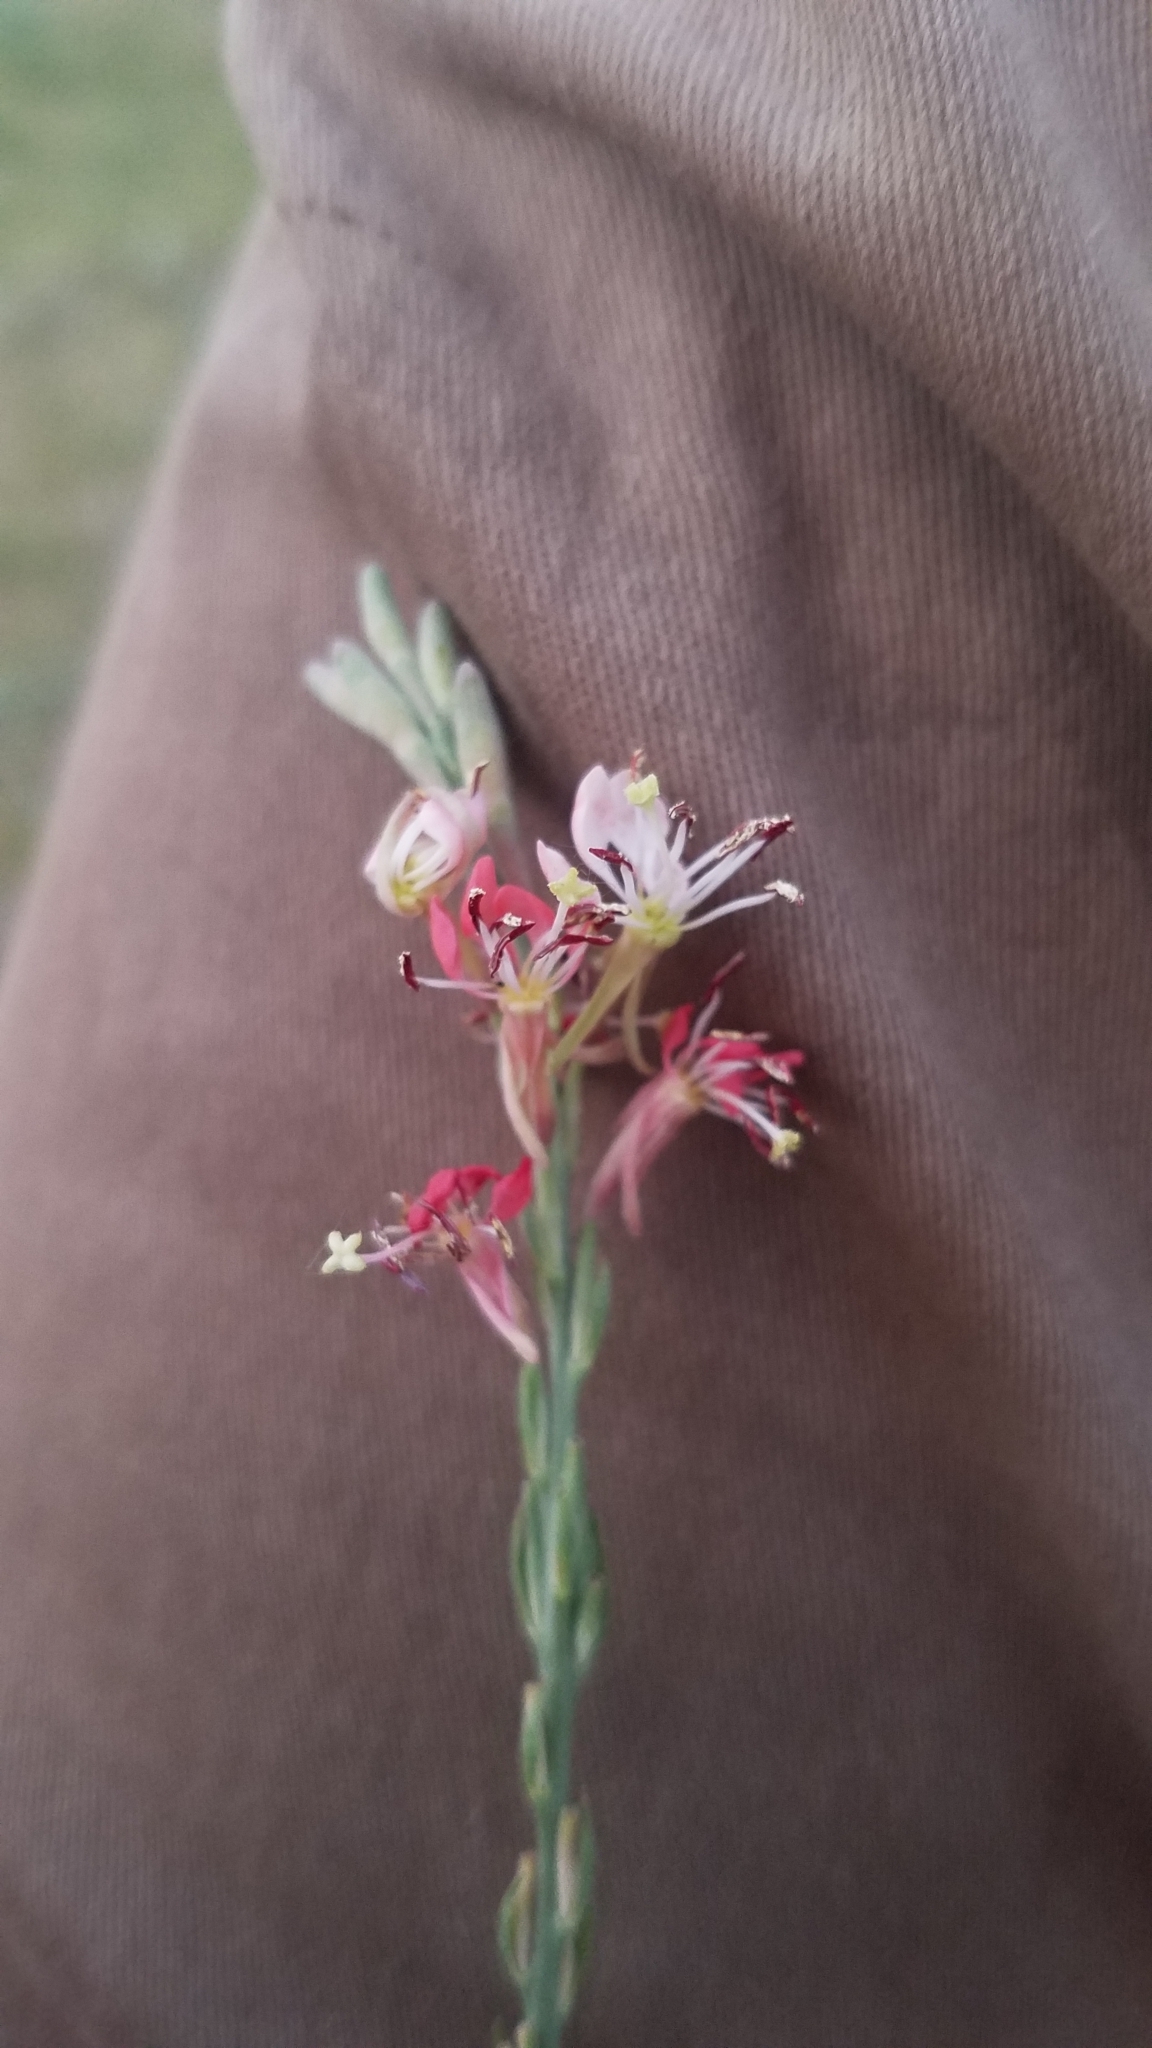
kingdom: Plantae
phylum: Tracheophyta
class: Magnoliopsida
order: Myrtales
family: Onagraceae
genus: Oenothera
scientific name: Oenothera suffrutescens
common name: Scarlet beeblossom
